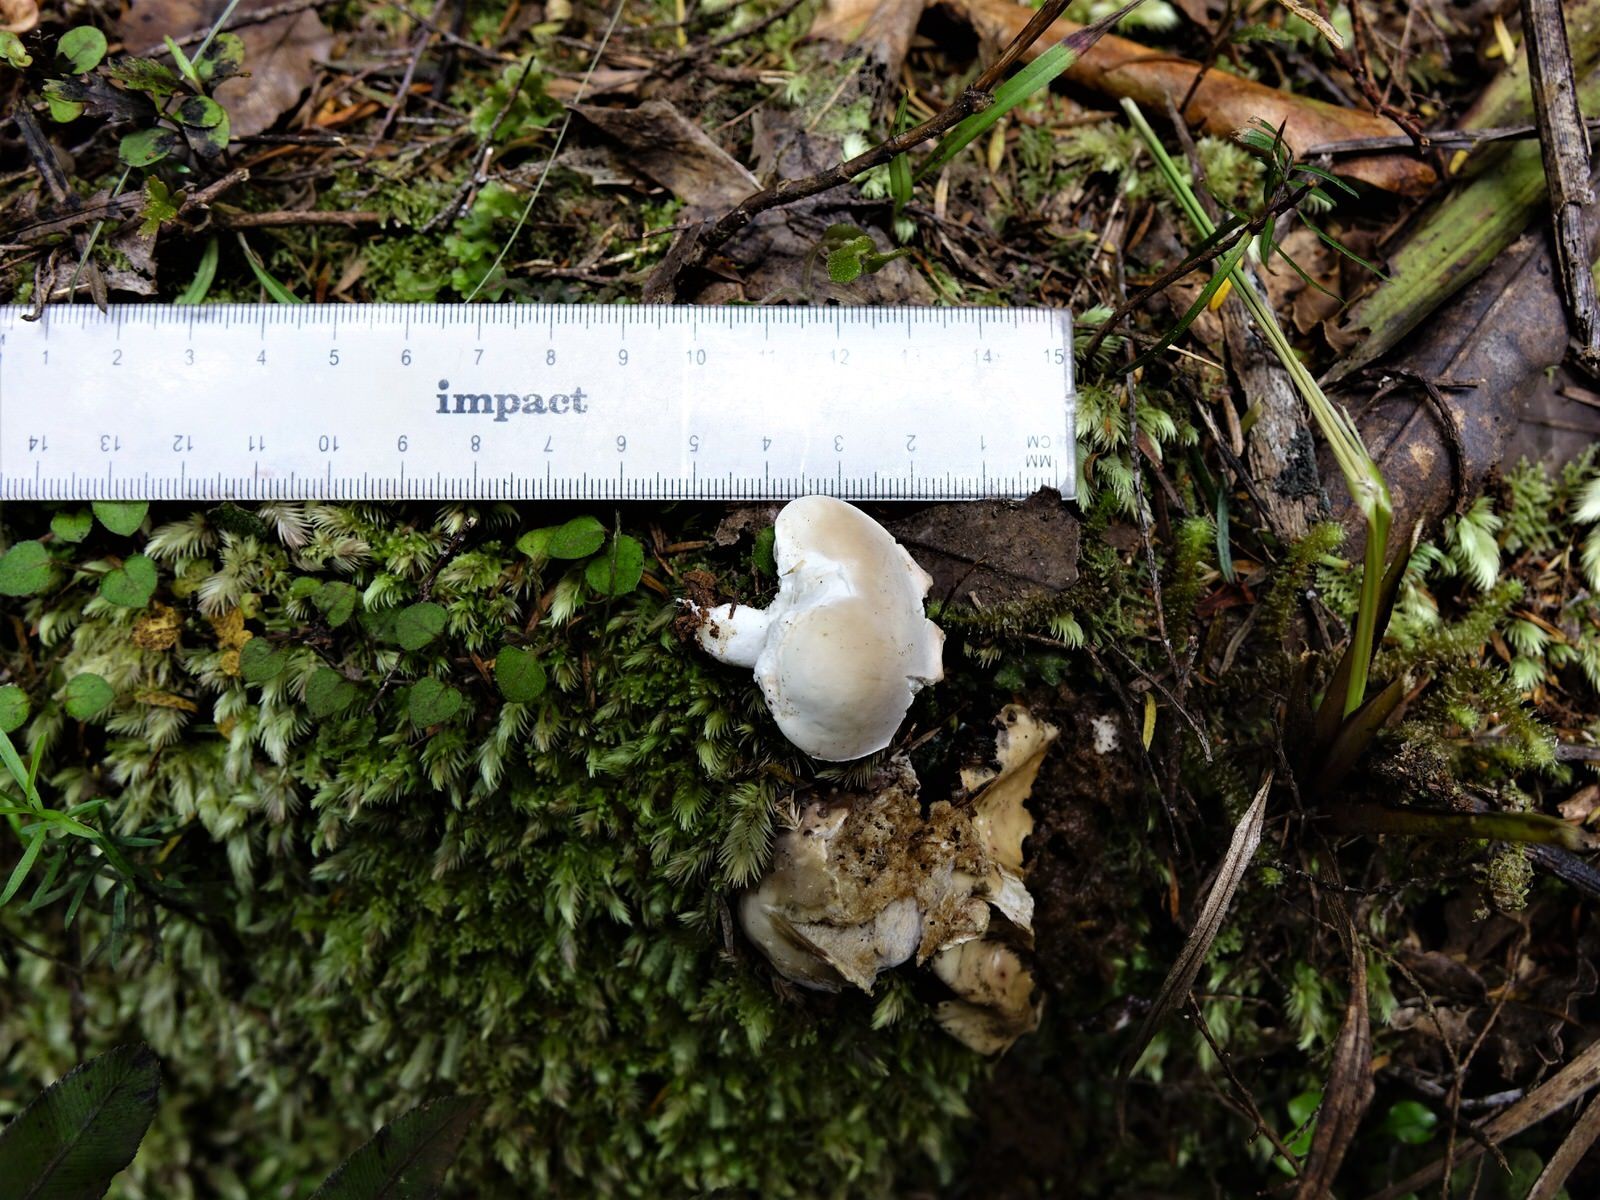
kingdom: Fungi
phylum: Basidiomycota
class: Agaricomycetes
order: Boletales
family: Boletaceae
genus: Boletus
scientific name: Boletus semigastroideus
